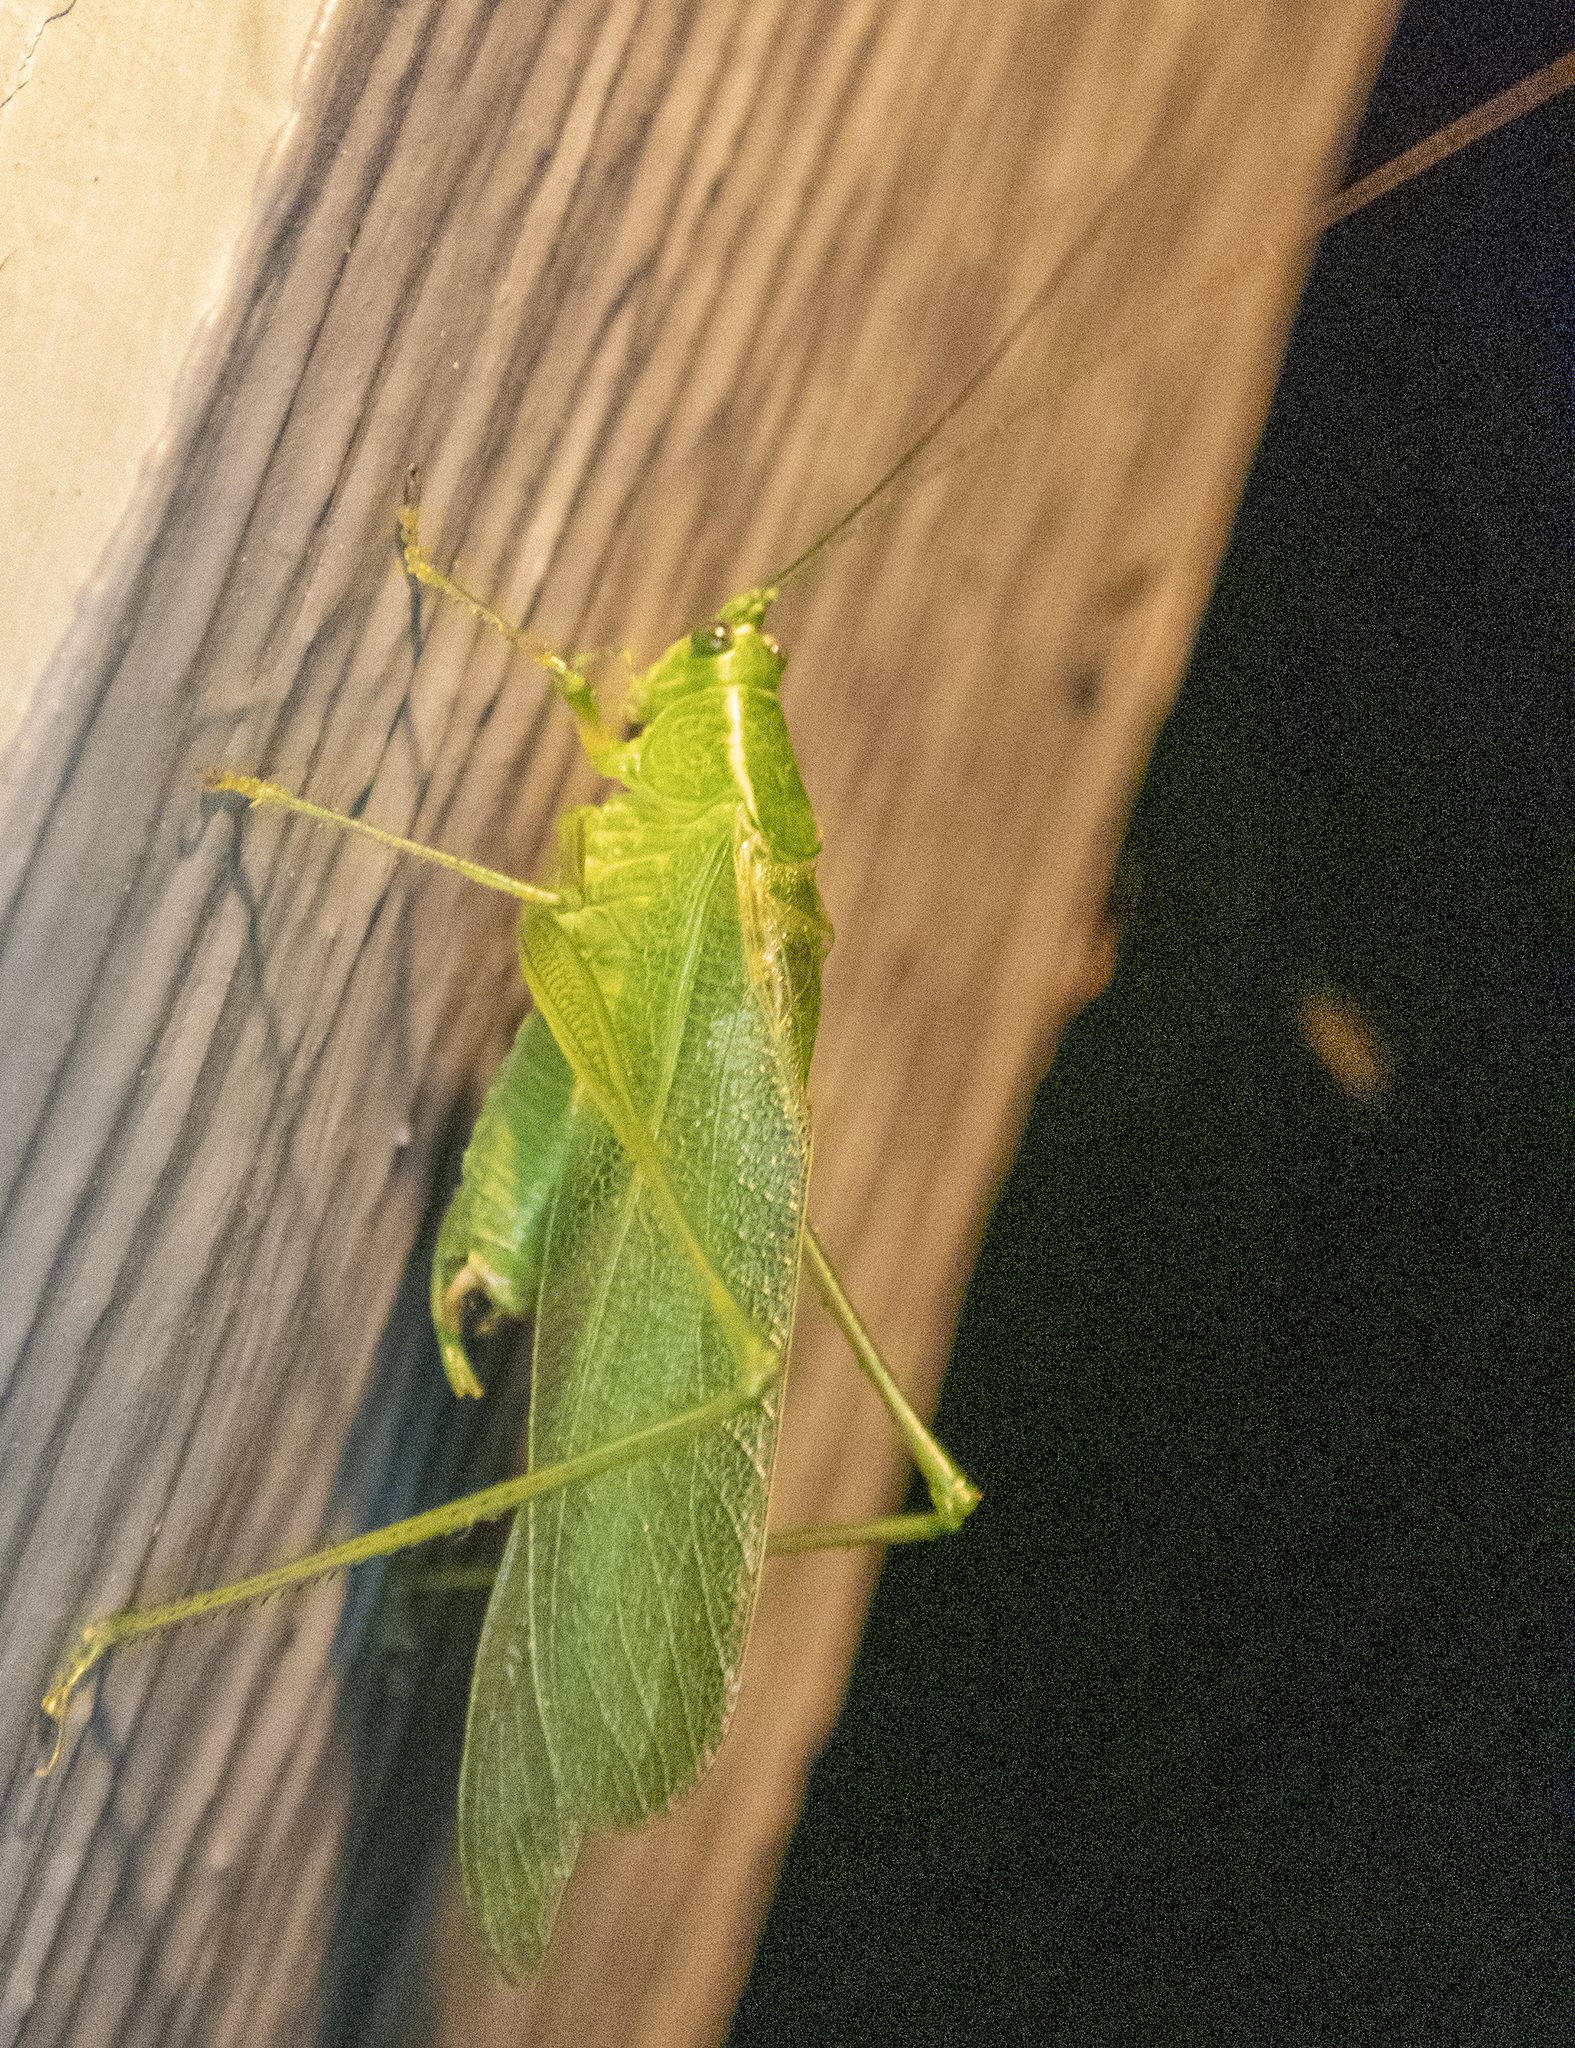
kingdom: Animalia
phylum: Arthropoda
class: Insecta
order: Orthoptera
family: Tettigoniidae
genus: Scudderia
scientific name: Scudderia septentrionalis
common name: Northern bush-katydid
